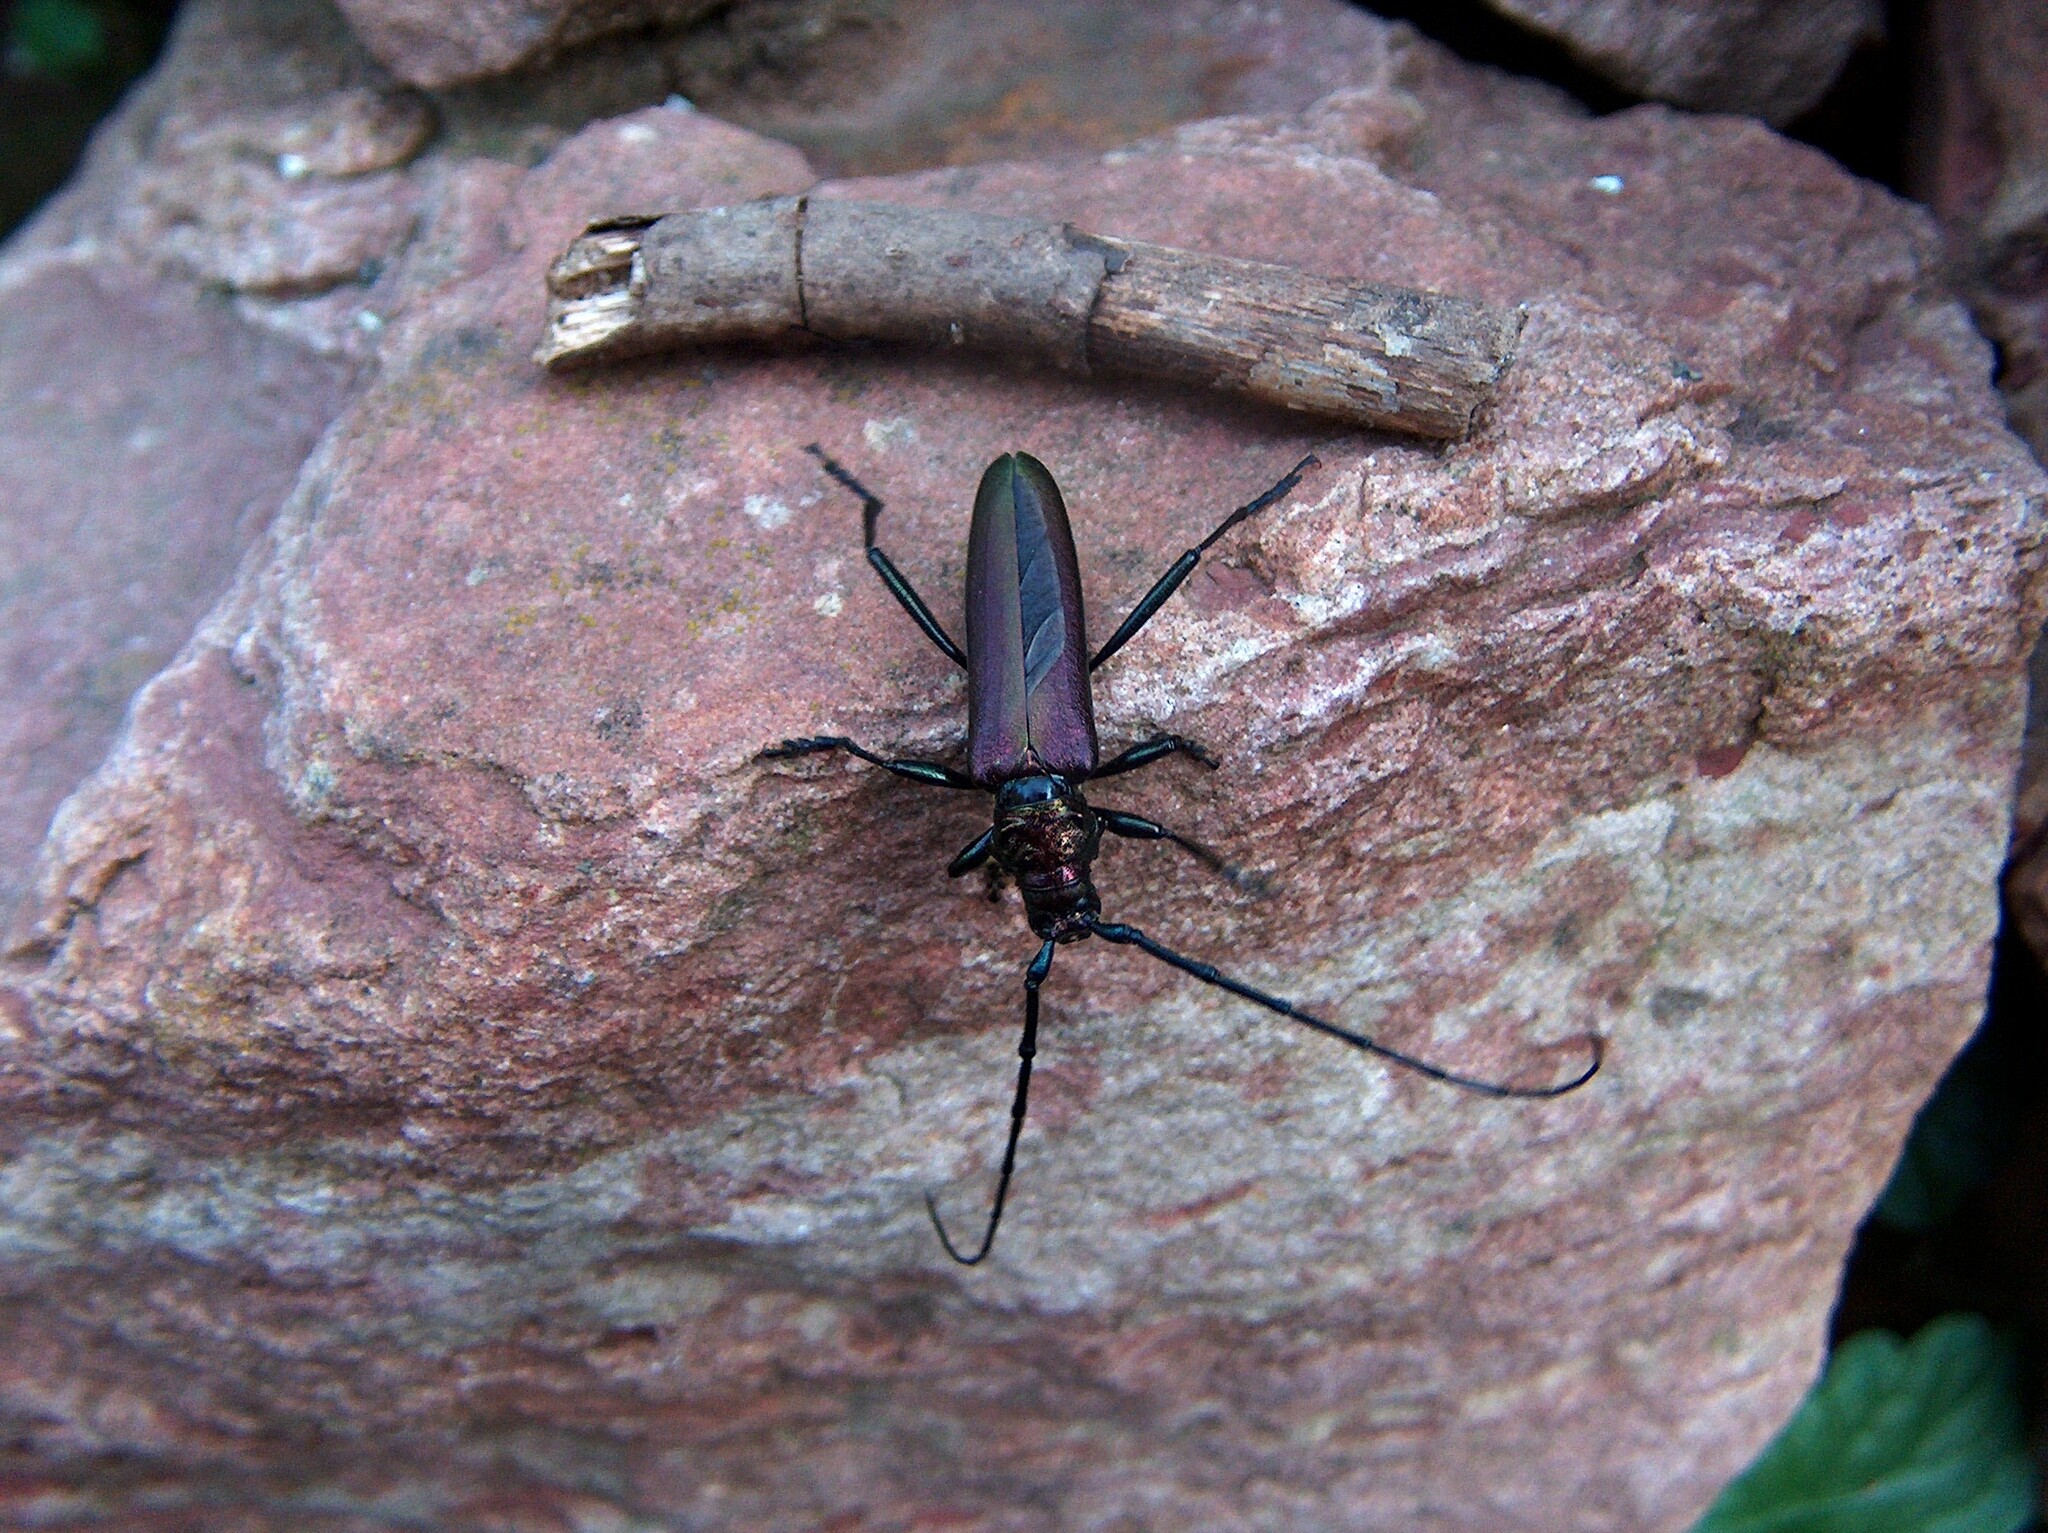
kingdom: Animalia
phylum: Arthropoda
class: Insecta
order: Coleoptera
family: Cerambycidae
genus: Aromia
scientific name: Aromia moschata
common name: Musk beetle
